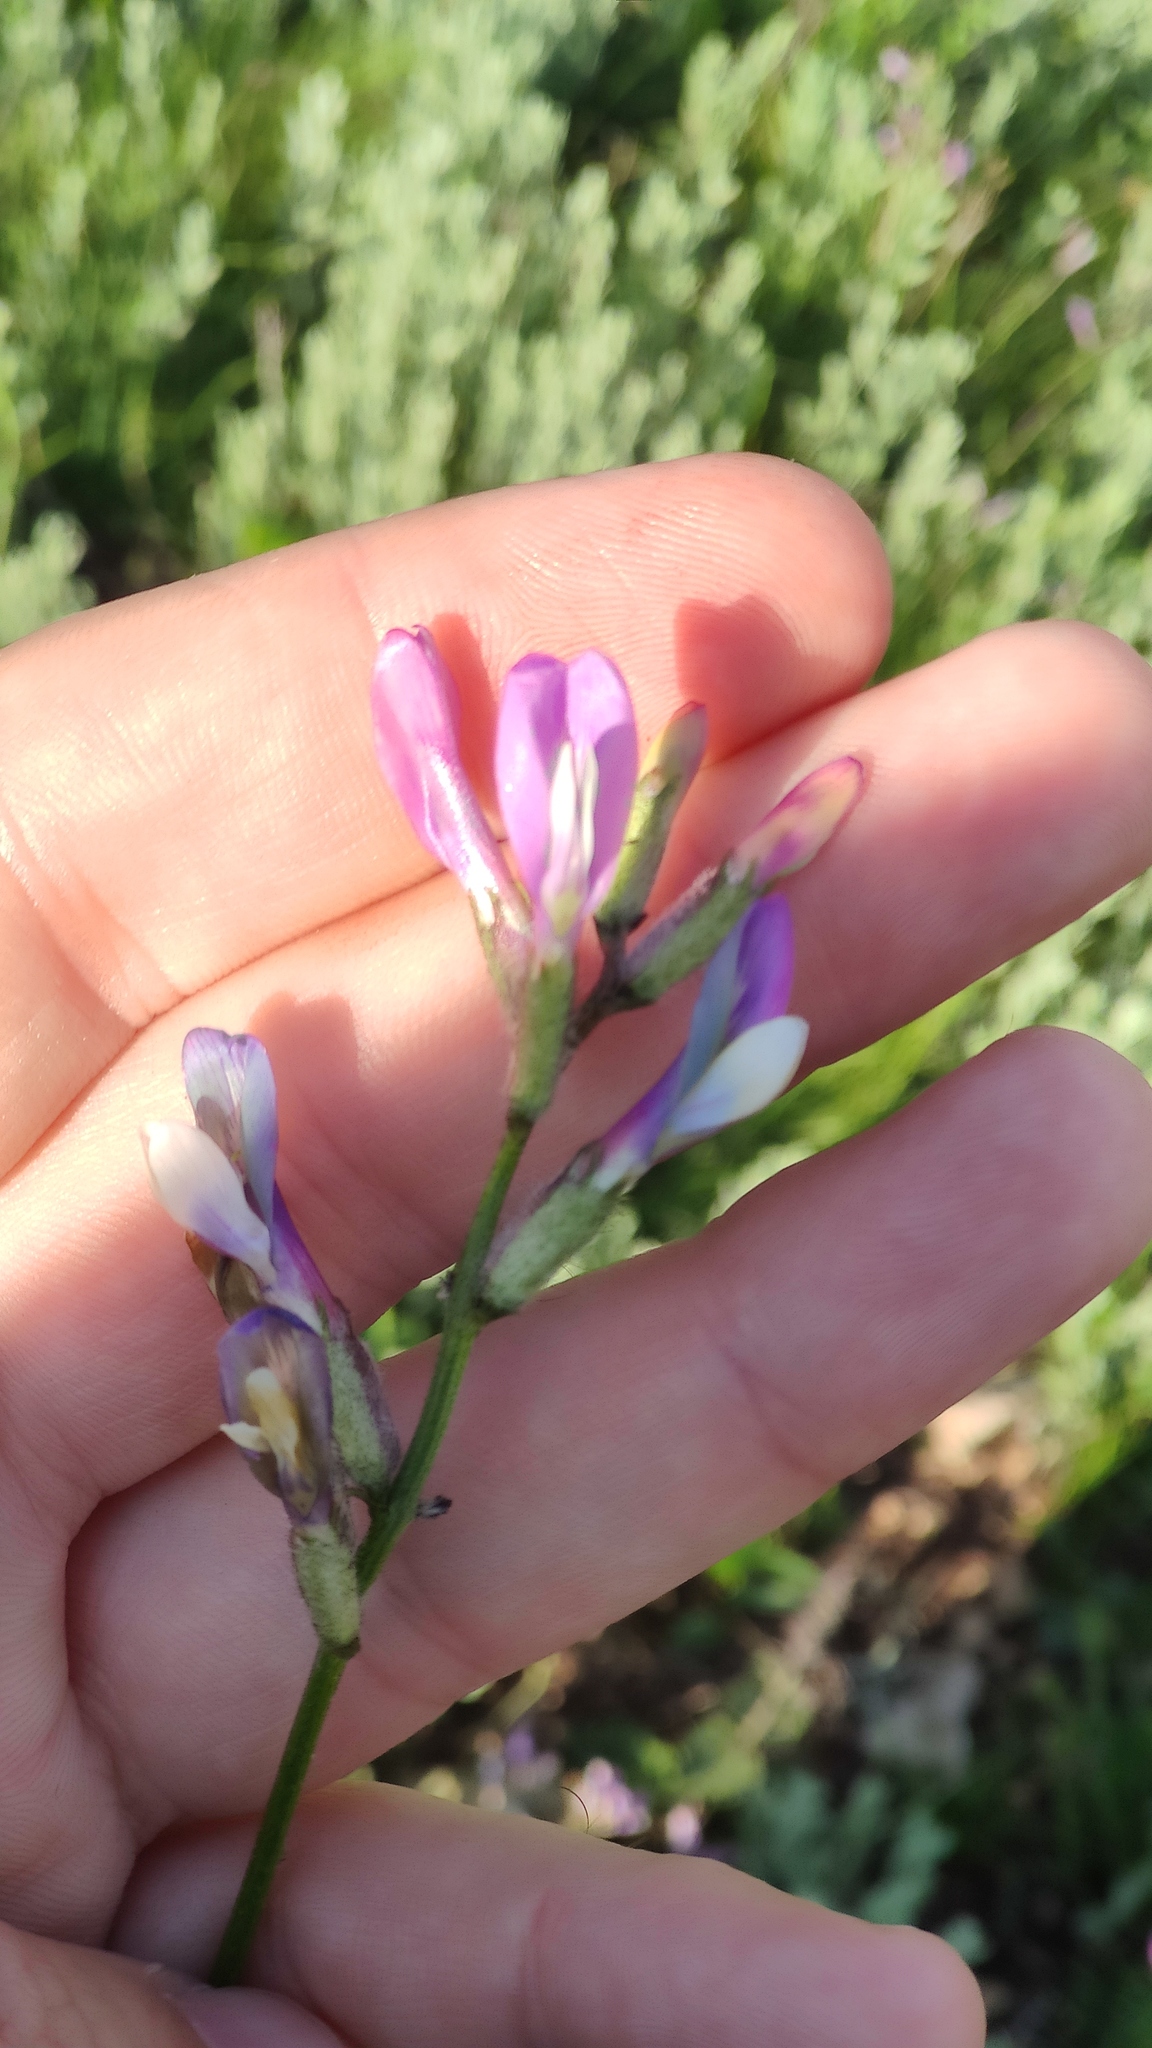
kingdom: Plantae
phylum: Tracheophyta
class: Magnoliopsida
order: Fabales
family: Fabaceae
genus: Astragalus
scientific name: Astragalus macropus
